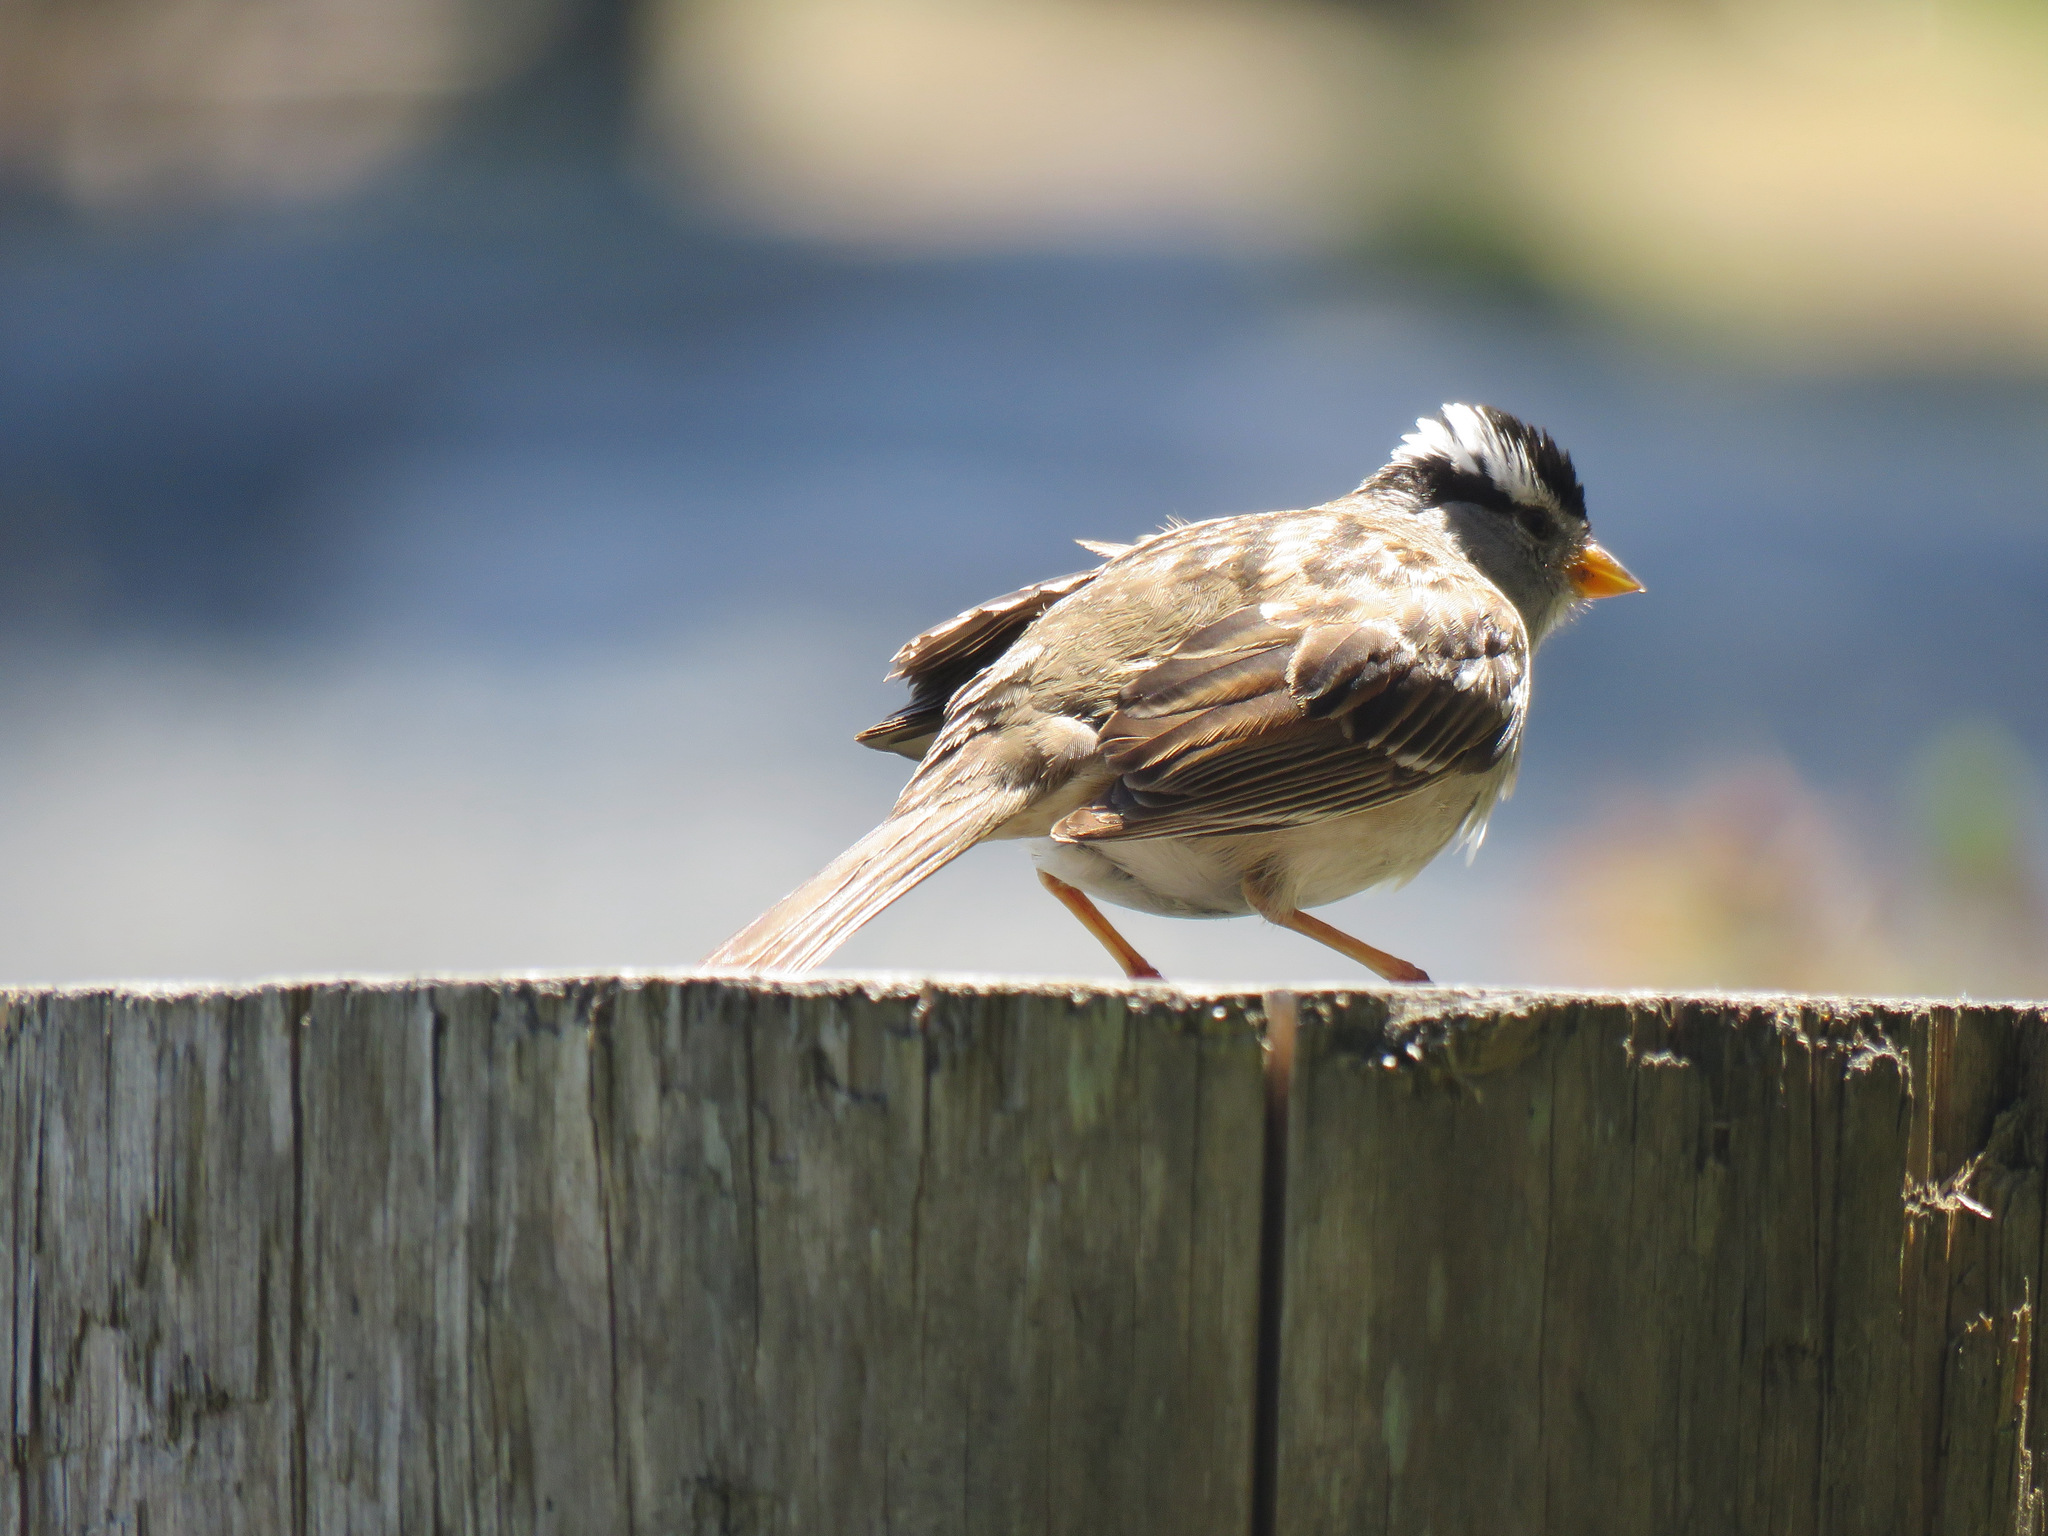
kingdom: Animalia
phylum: Chordata
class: Aves
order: Passeriformes
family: Passerellidae
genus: Zonotrichia
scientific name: Zonotrichia leucophrys
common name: White-crowned sparrow
